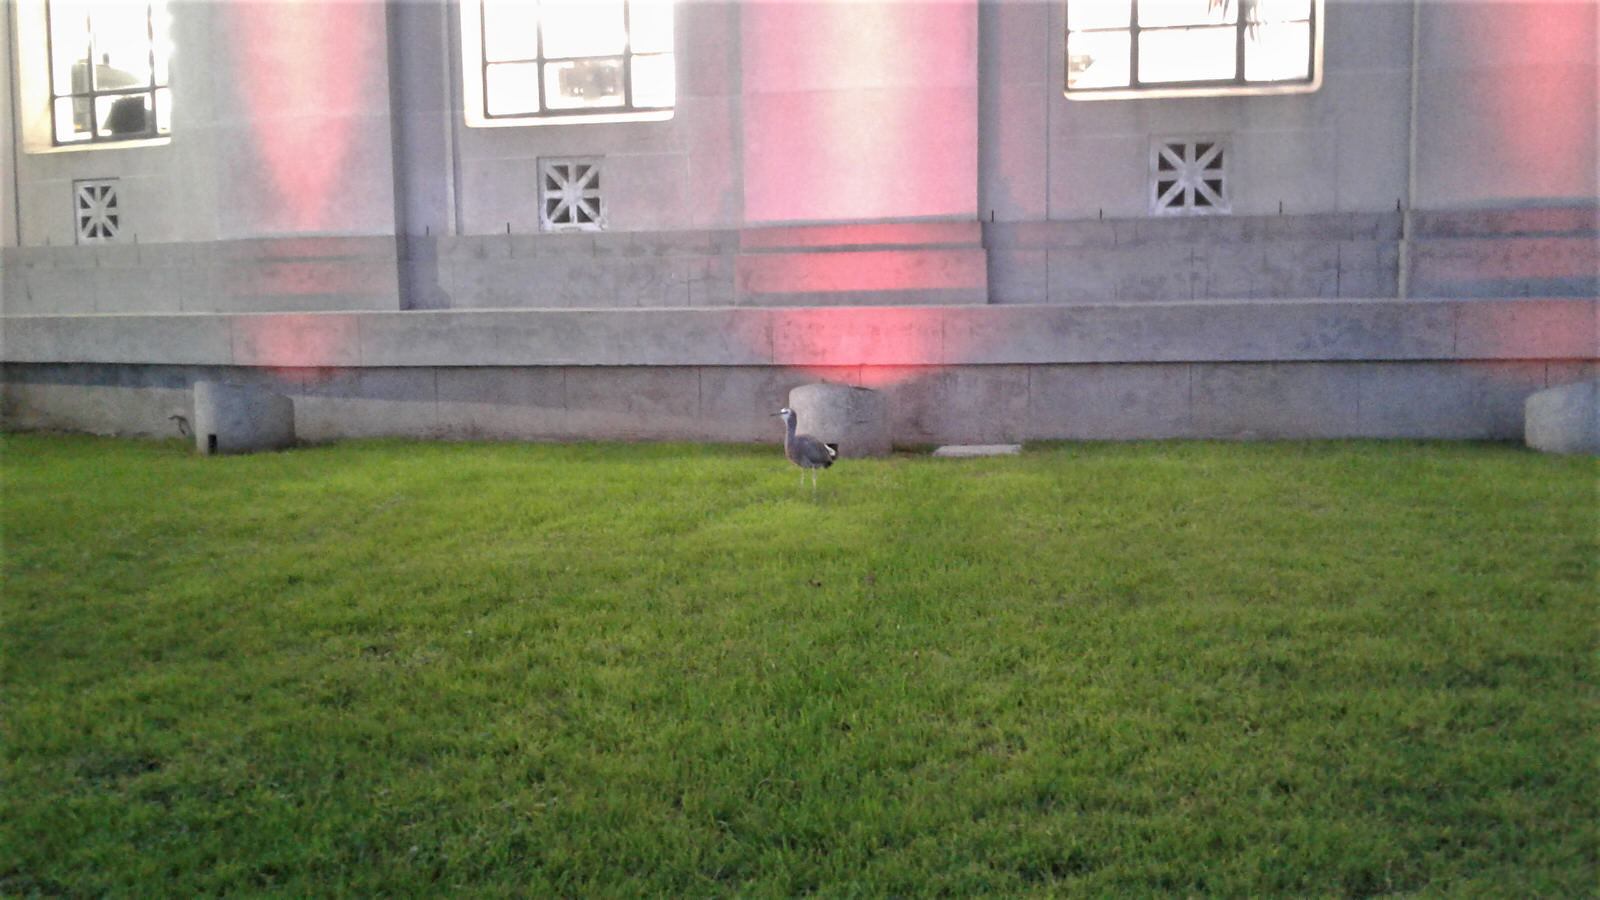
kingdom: Animalia
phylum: Chordata
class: Aves
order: Pelecaniformes
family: Ardeidae
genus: Egretta
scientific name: Egretta novaehollandiae
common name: White-faced heron
